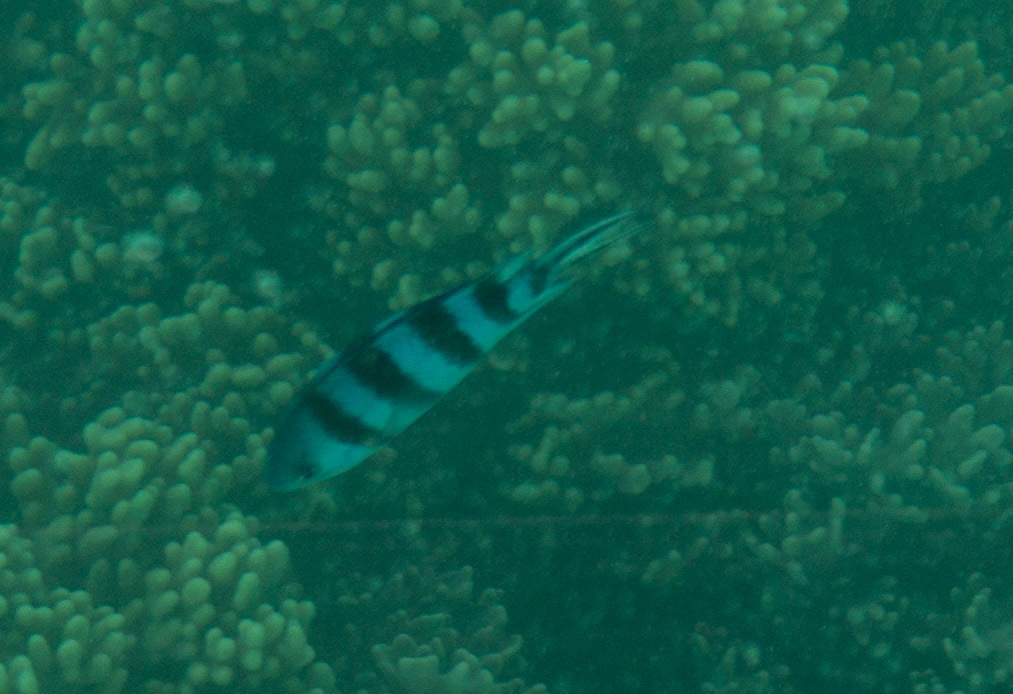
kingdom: Animalia
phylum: Chordata
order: Perciformes
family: Pomacentridae
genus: Abudefduf
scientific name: Abudefduf sexfasciatus
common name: Scissortail sergeant
